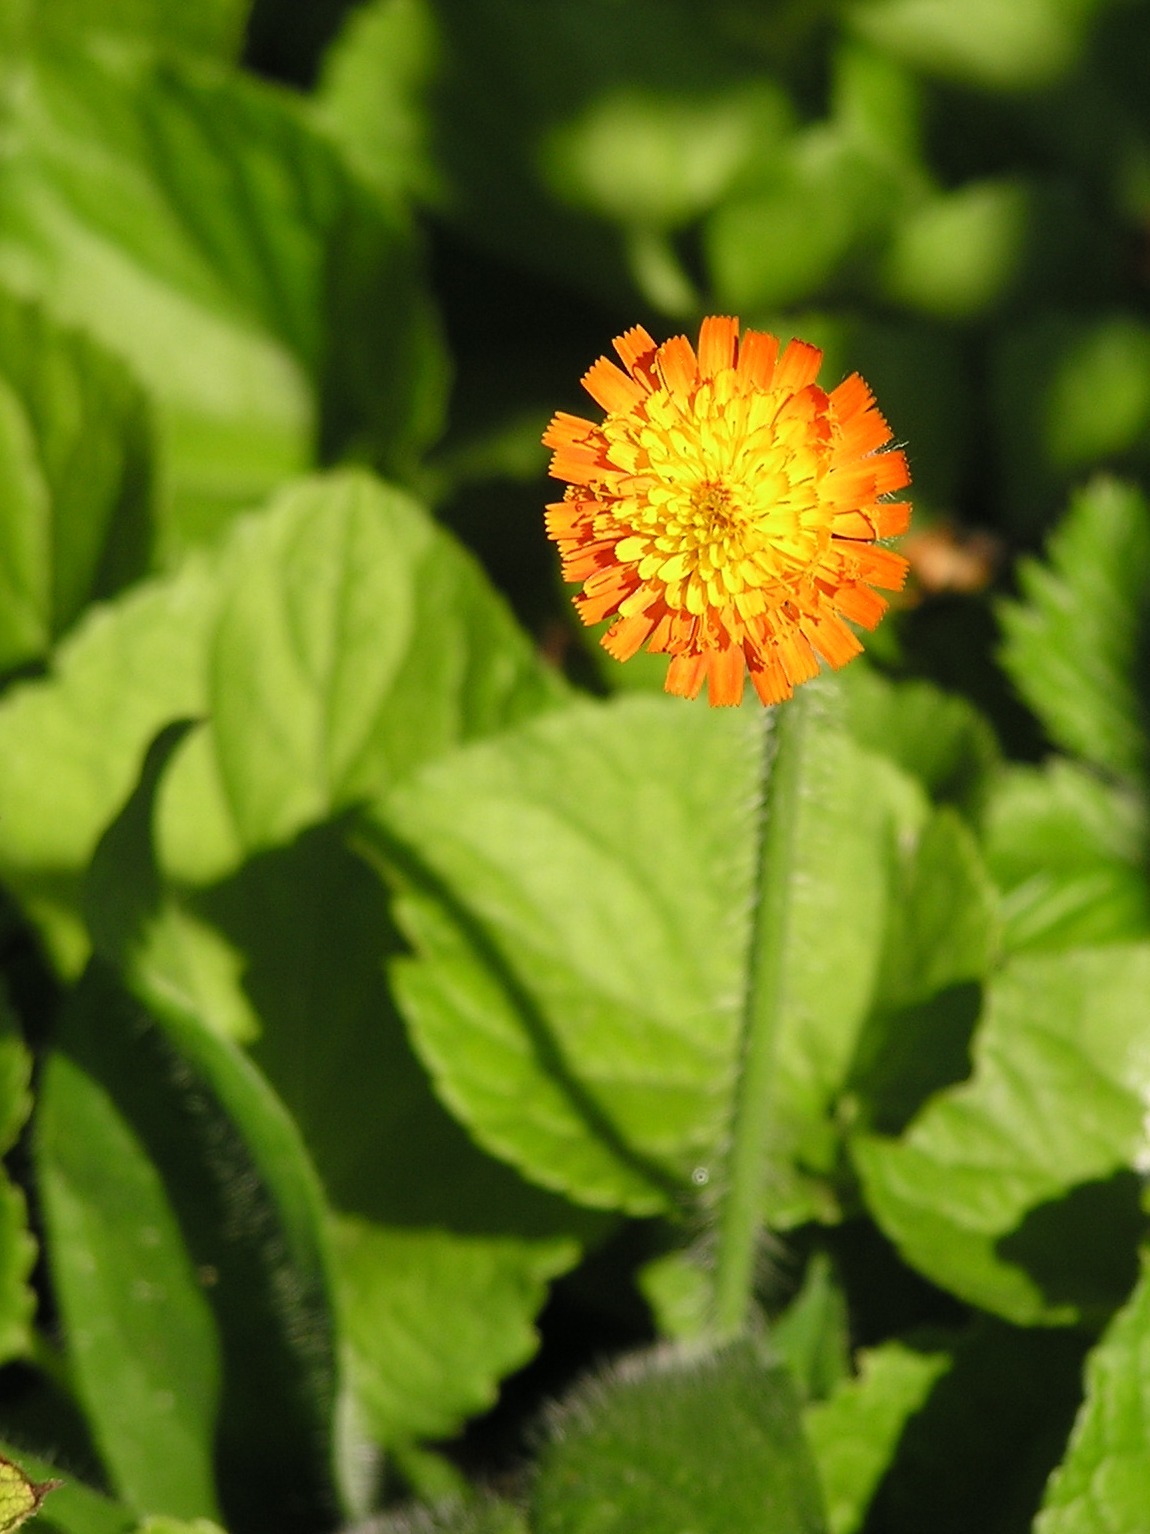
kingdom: Plantae
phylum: Tracheophyta
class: Magnoliopsida
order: Asterales
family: Asteraceae
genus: Pilosella
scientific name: Pilosella aurantiaca
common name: Fox-and-cubs
